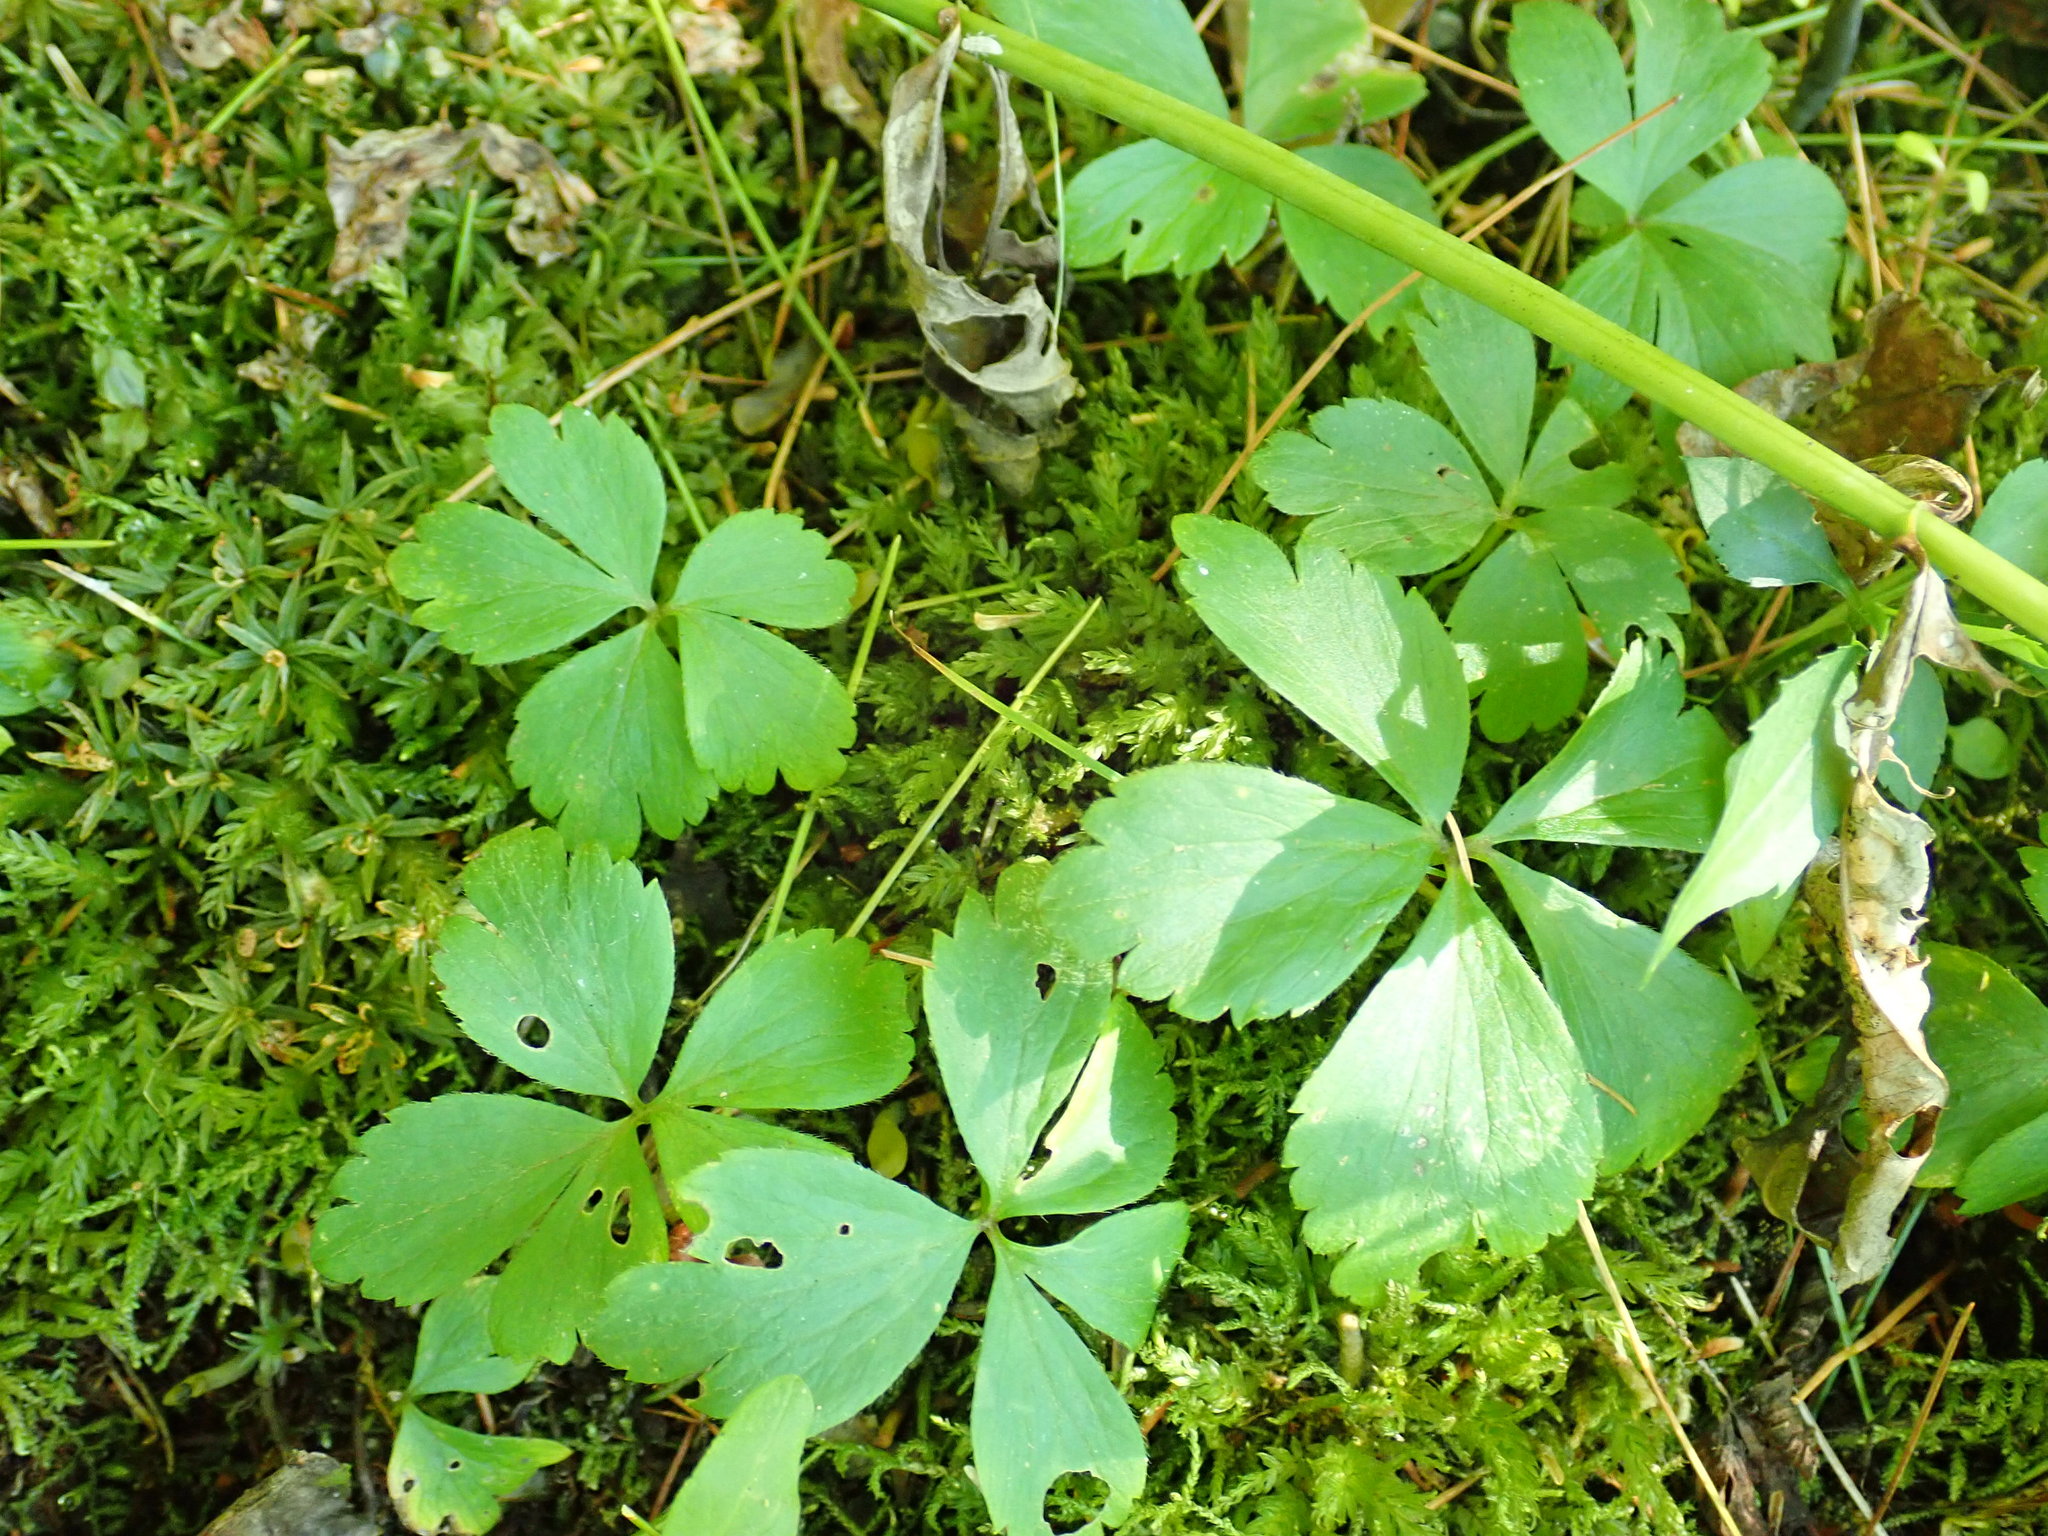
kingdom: Plantae
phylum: Tracheophyta
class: Magnoliopsida
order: Ranunculales
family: Ranunculaceae
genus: Anemone
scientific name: Anemone quinquefolia
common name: Wood anemone
